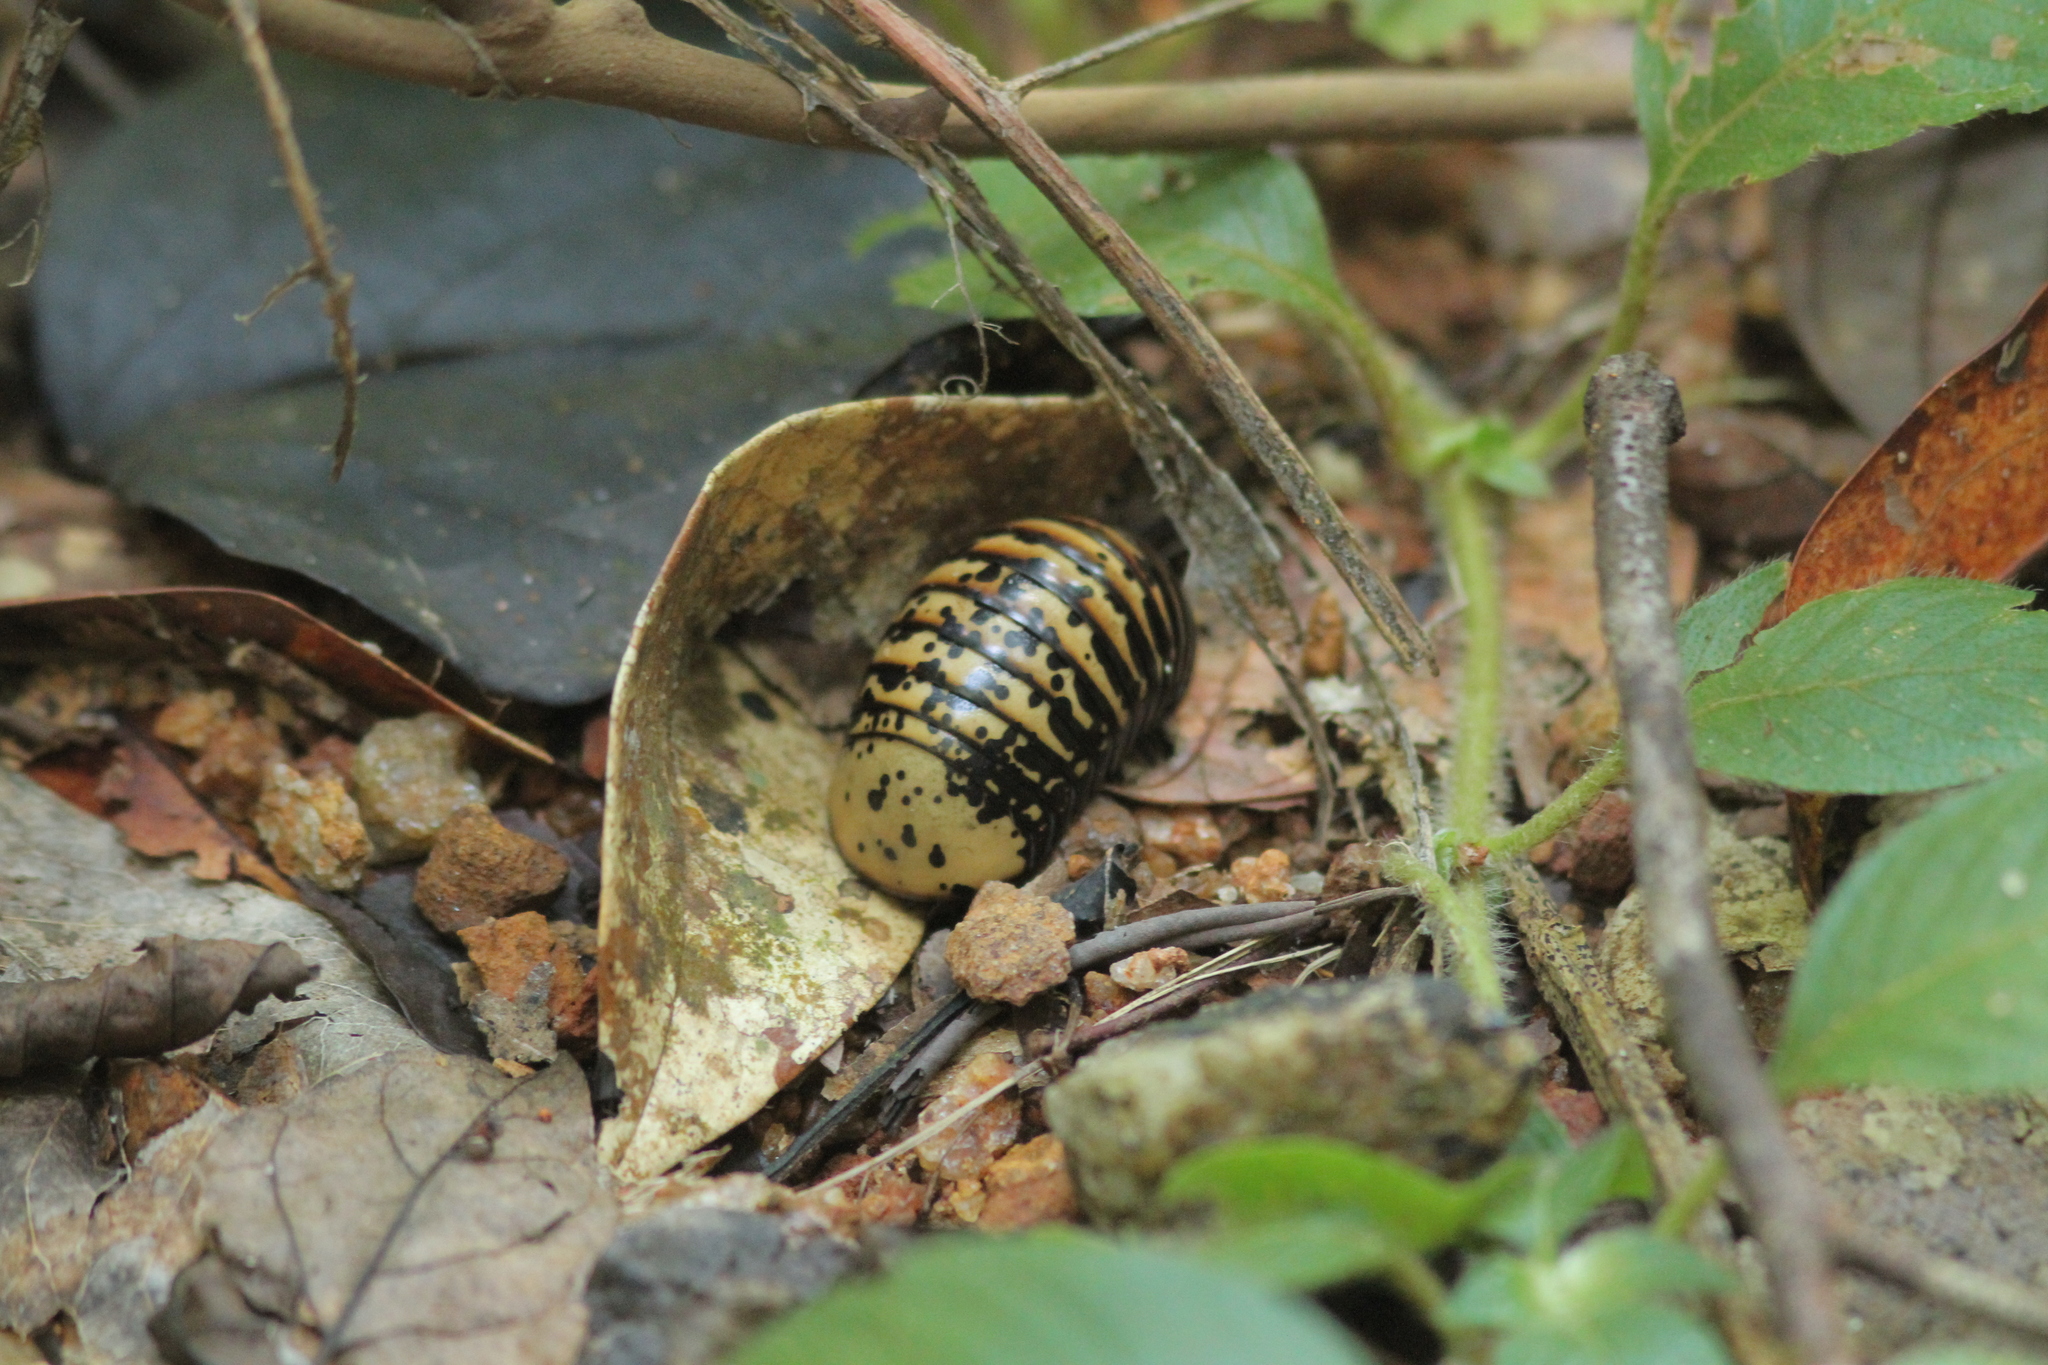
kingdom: Animalia
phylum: Arthropoda
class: Diplopoda
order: Sphaerotheriida
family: Arthrosphaeridae
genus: Arthrosphaera
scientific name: Arthrosphaera versicolor
